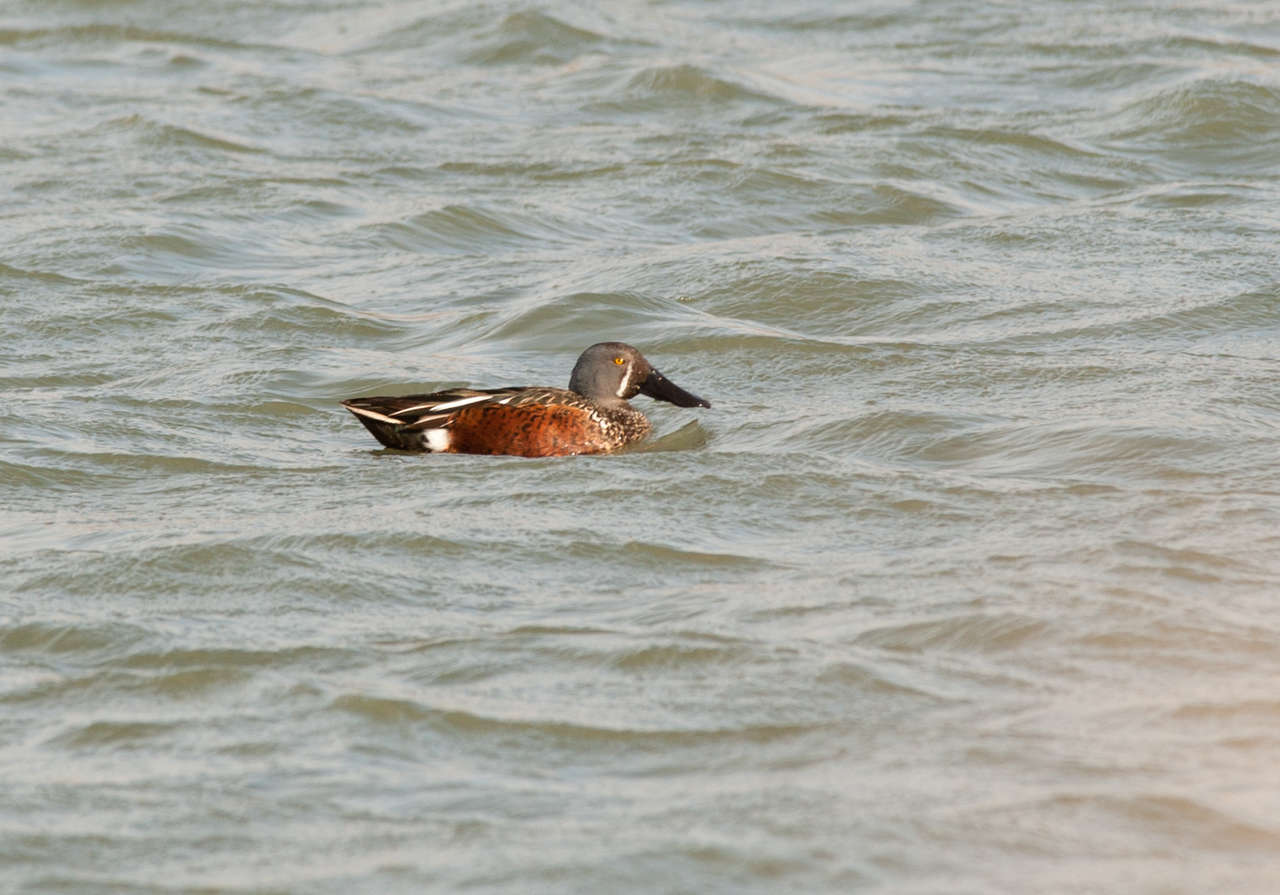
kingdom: Animalia
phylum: Chordata
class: Aves
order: Anseriformes
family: Anatidae
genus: Spatula
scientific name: Spatula rhynchotis
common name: Australian shoveler
